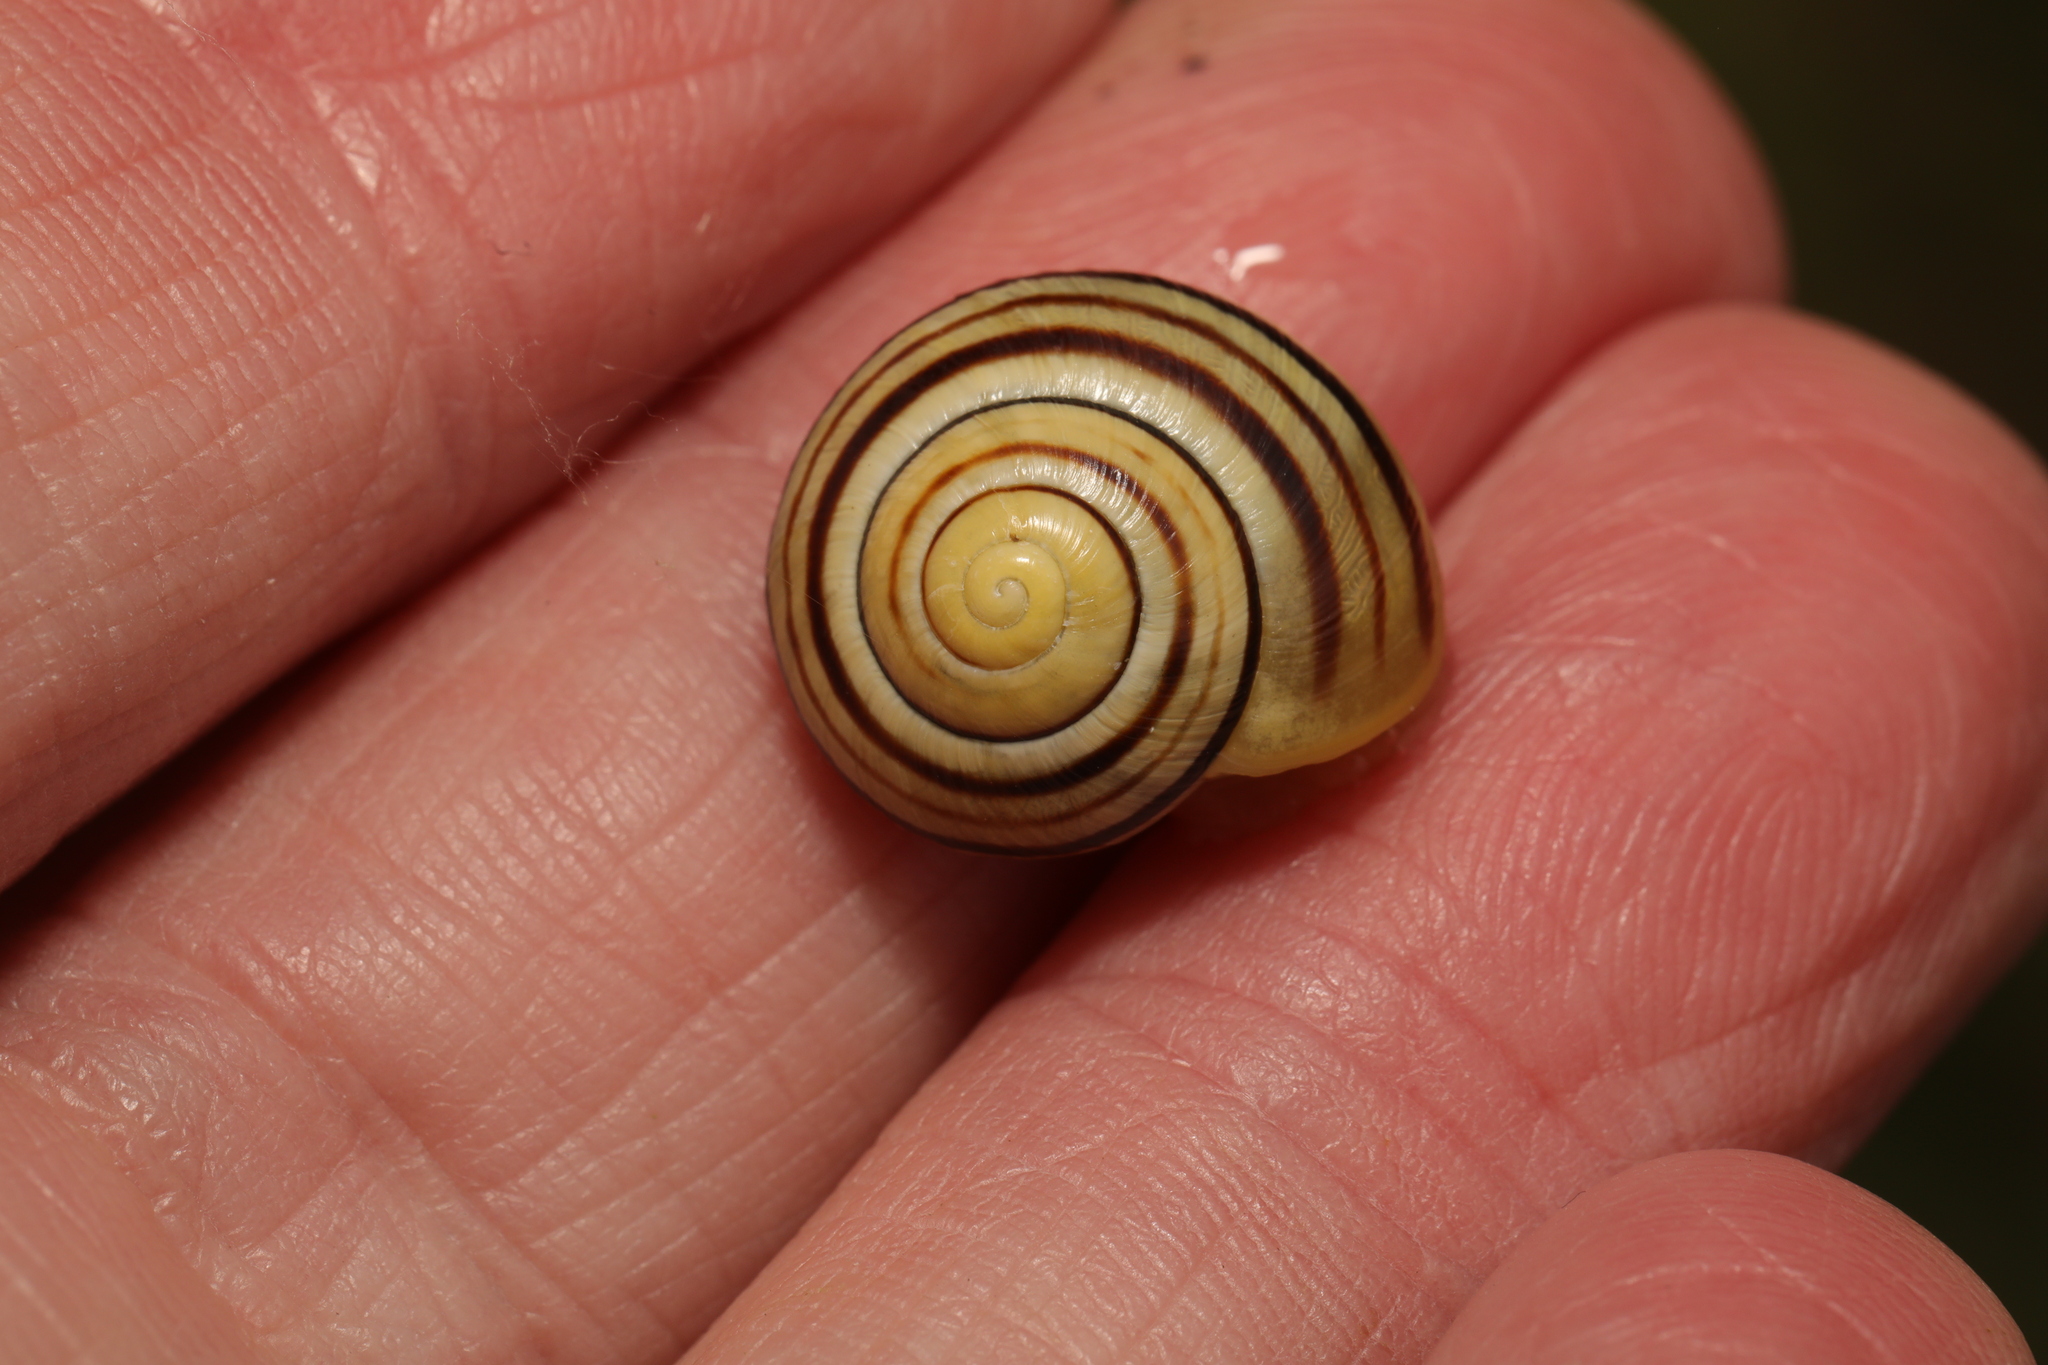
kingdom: Animalia
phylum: Mollusca
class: Gastropoda
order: Stylommatophora
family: Helicidae
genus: Cepaea
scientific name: Cepaea
